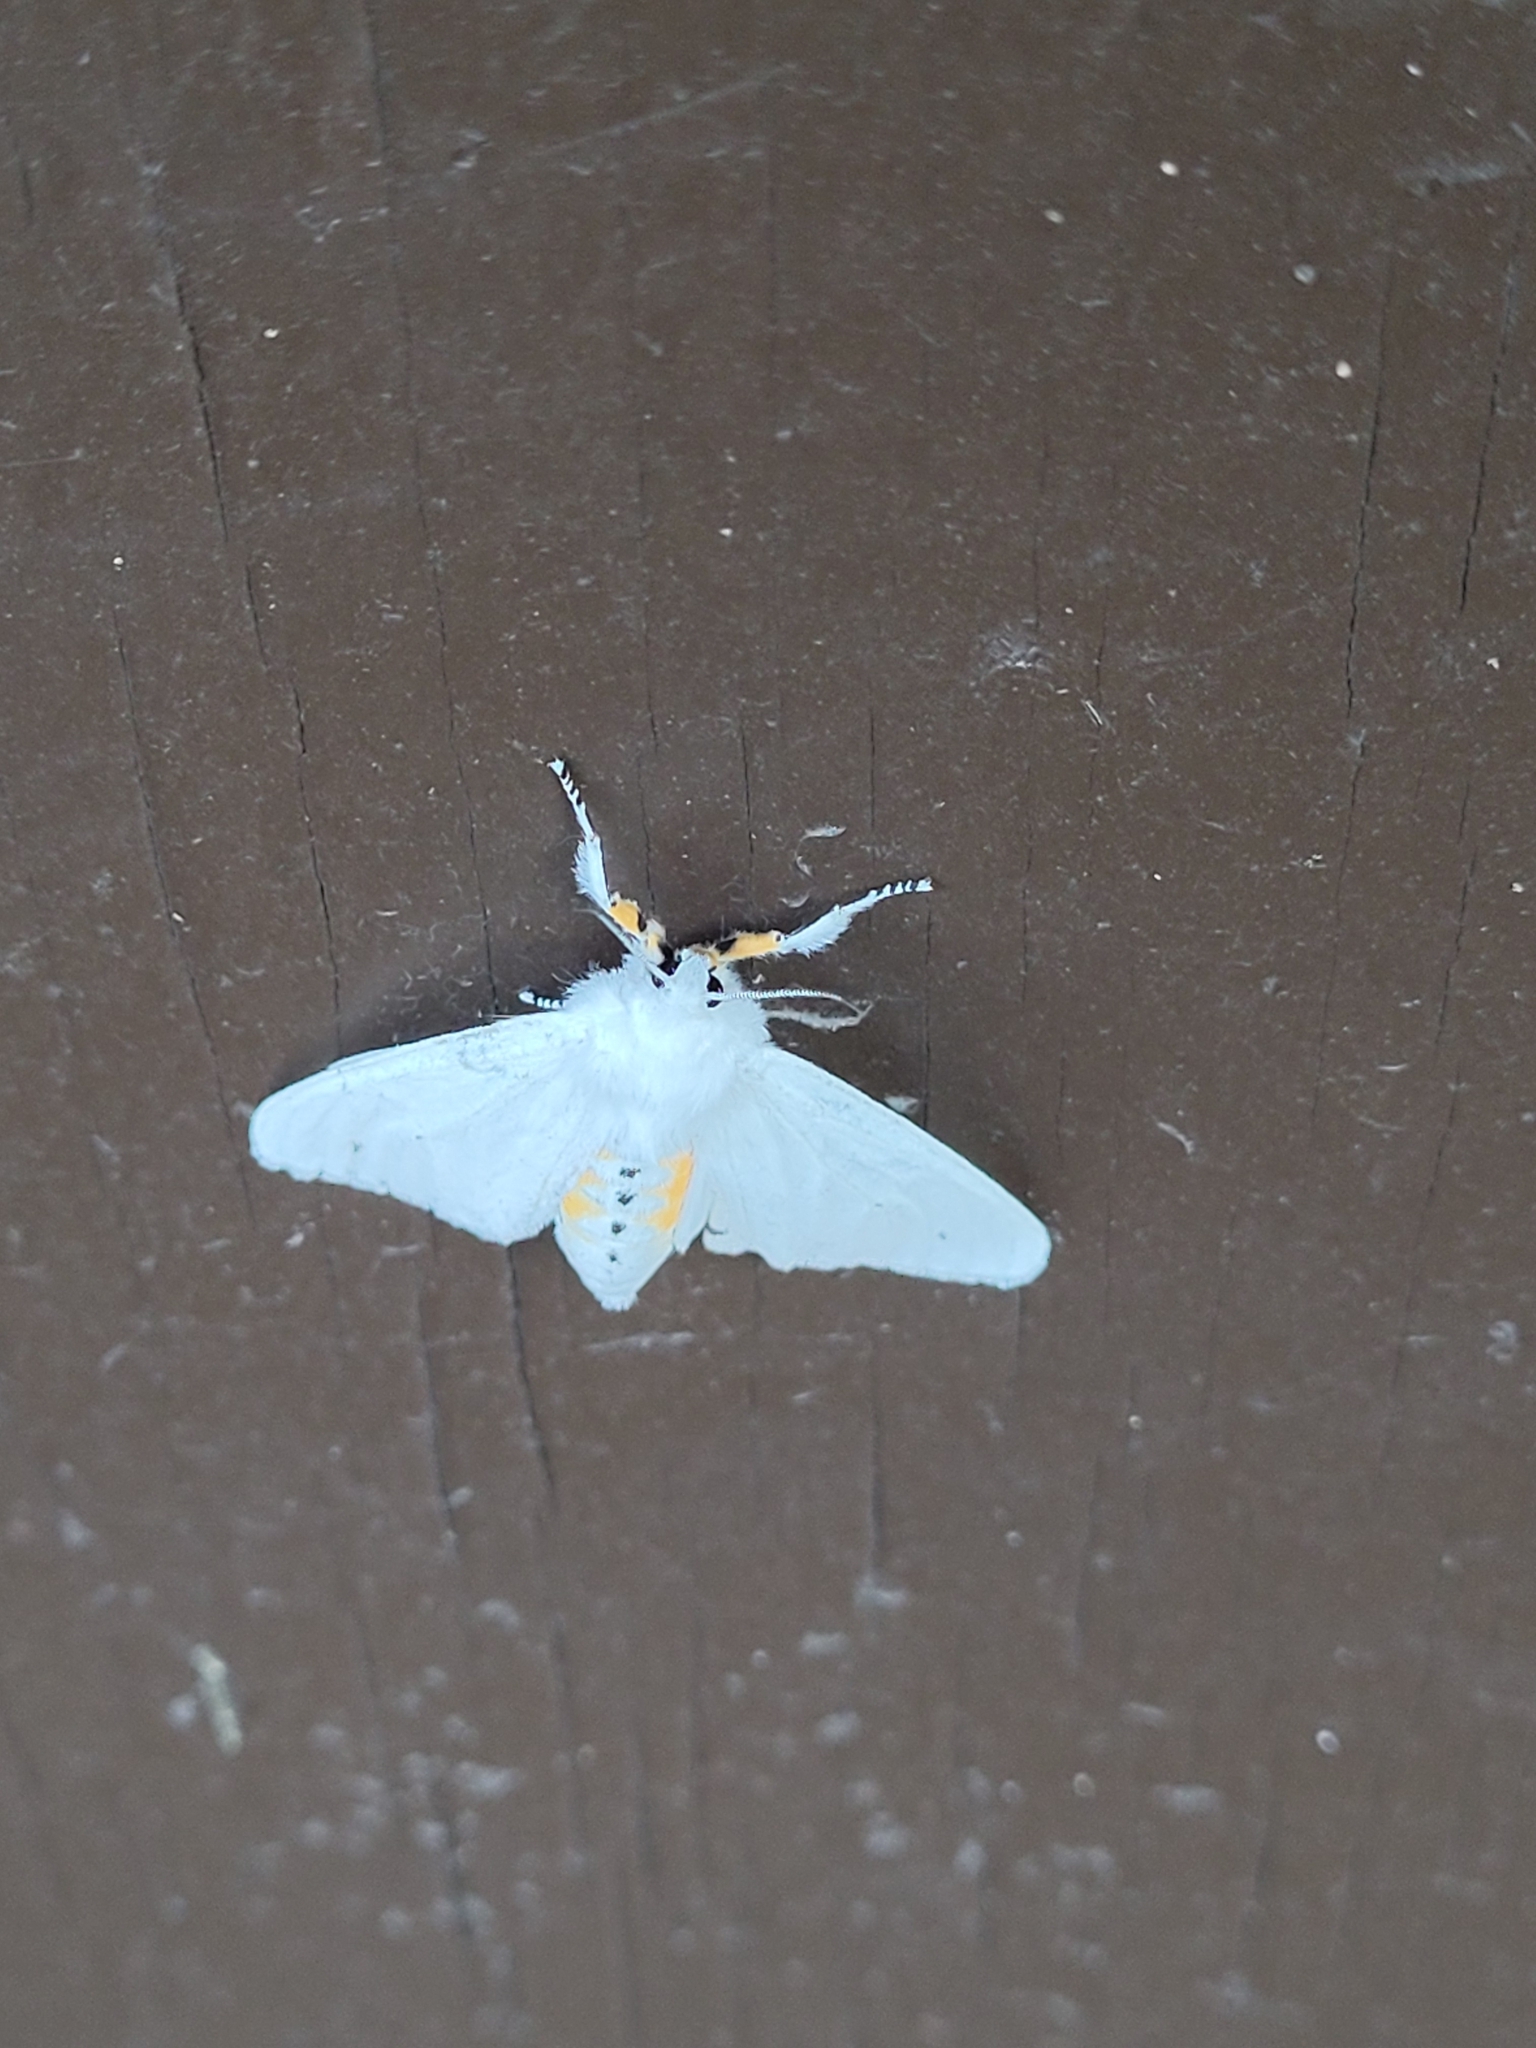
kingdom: Animalia
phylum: Arthropoda
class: Insecta
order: Lepidoptera
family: Erebidae
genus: Spilosoma
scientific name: Spilosoma virginica
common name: Virginia tiger moth
